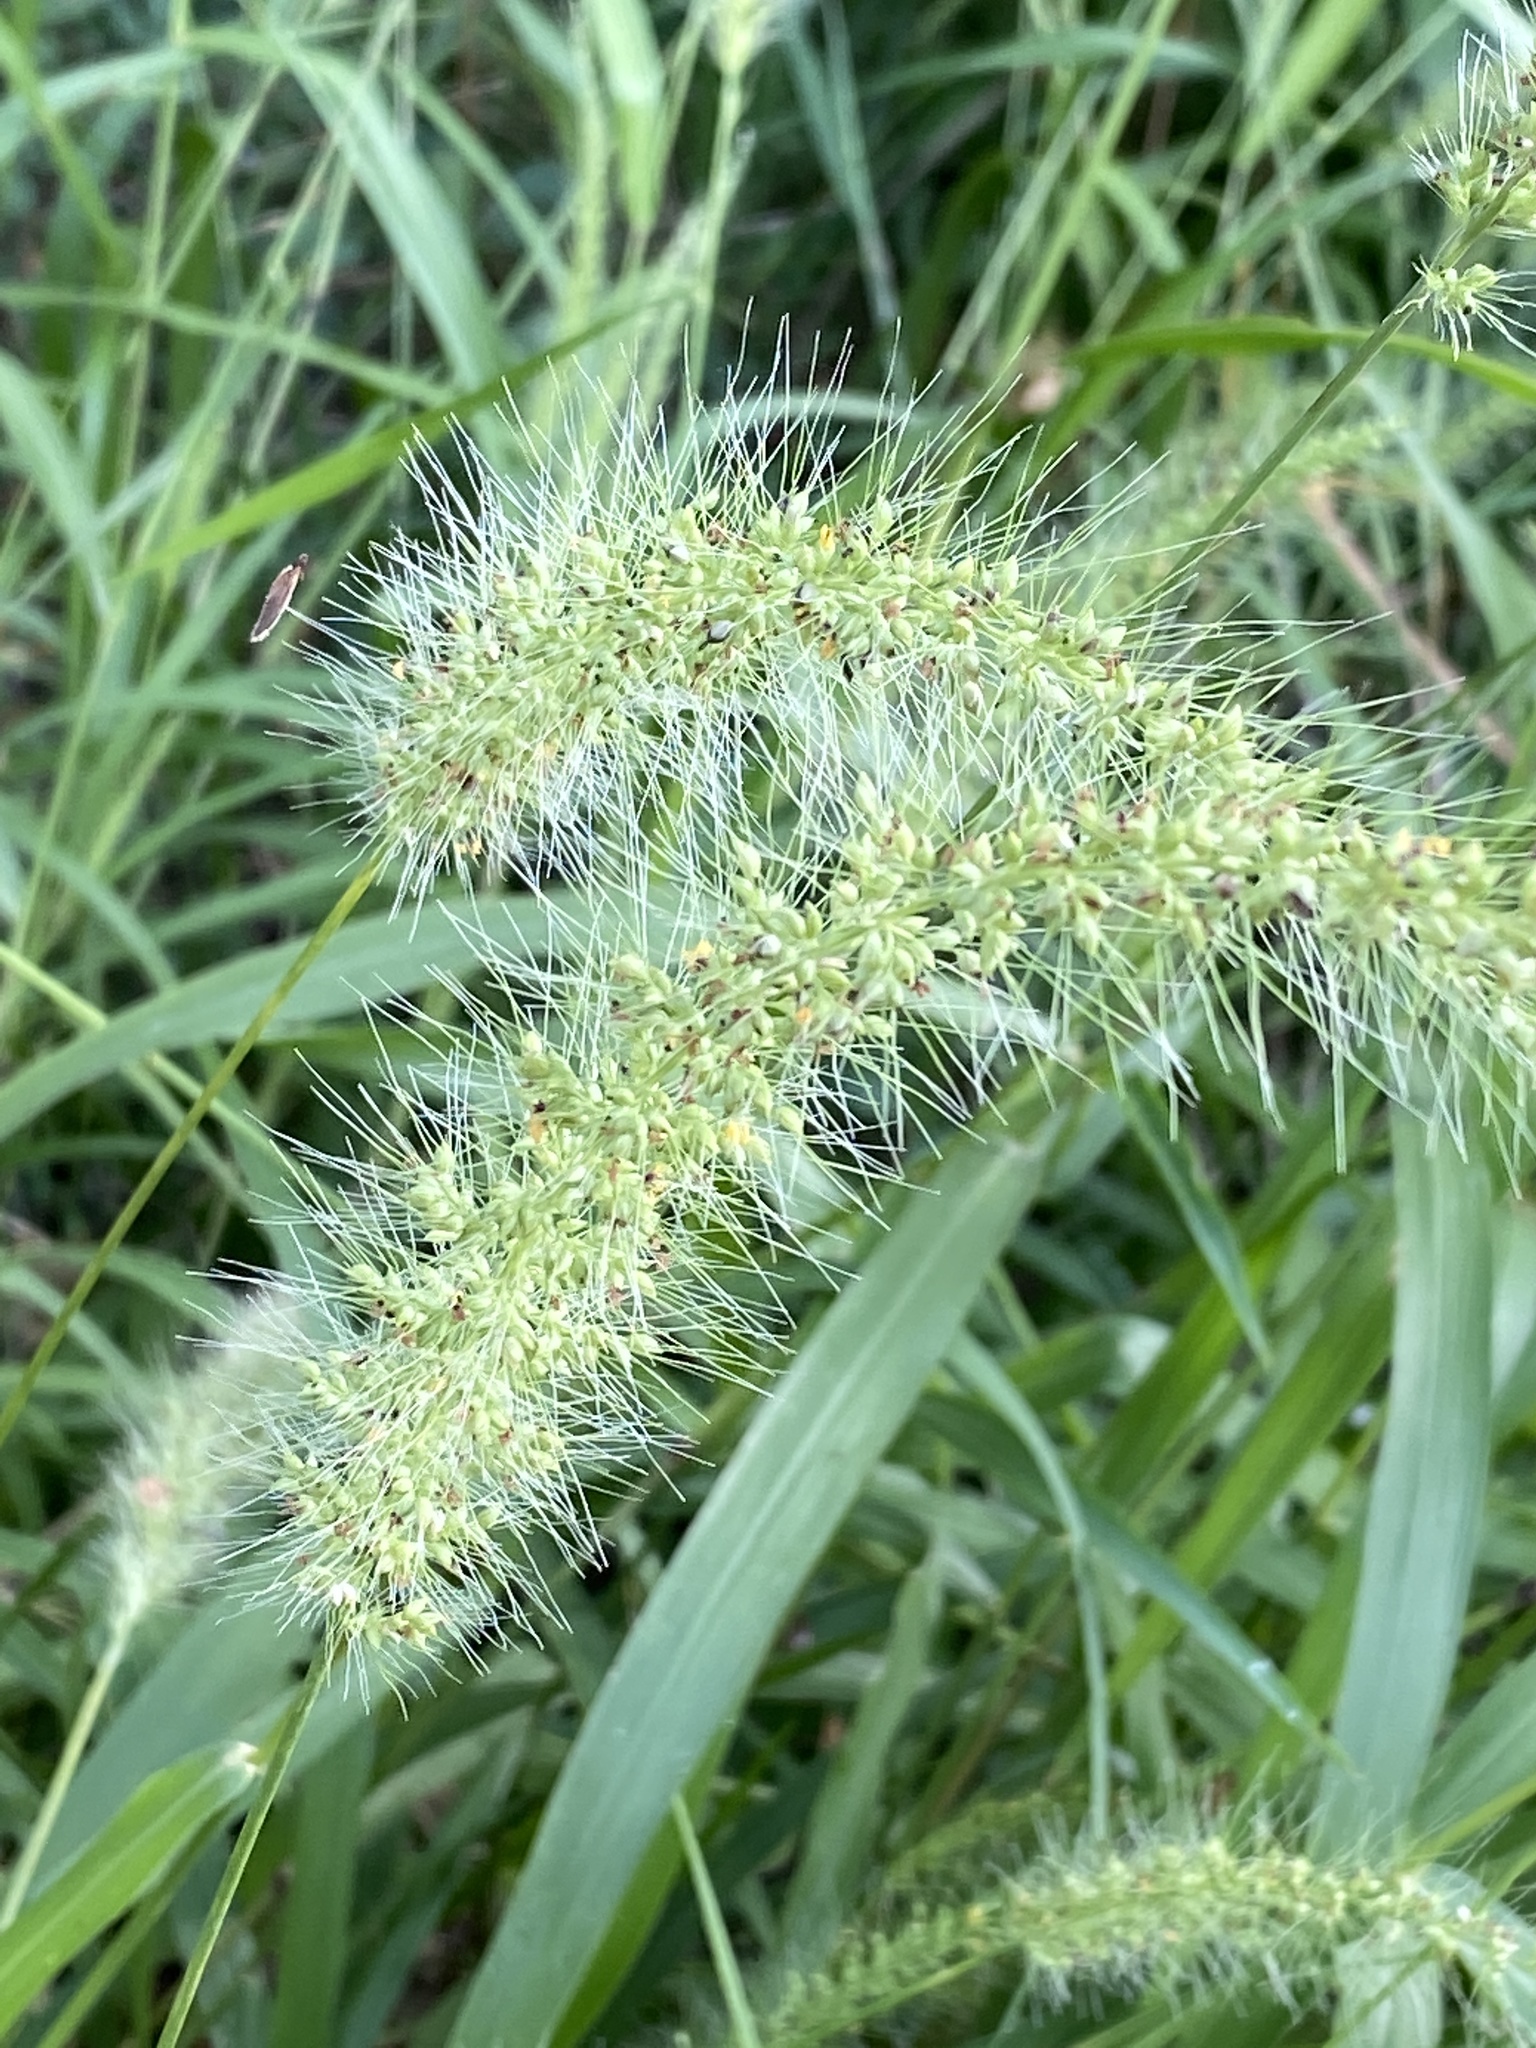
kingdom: Plantae
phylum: Tracheophyta
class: Liliopsida
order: Poales
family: Poaceae
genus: Setaria
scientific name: Setaria scheelei
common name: Southwestern bristle grass
